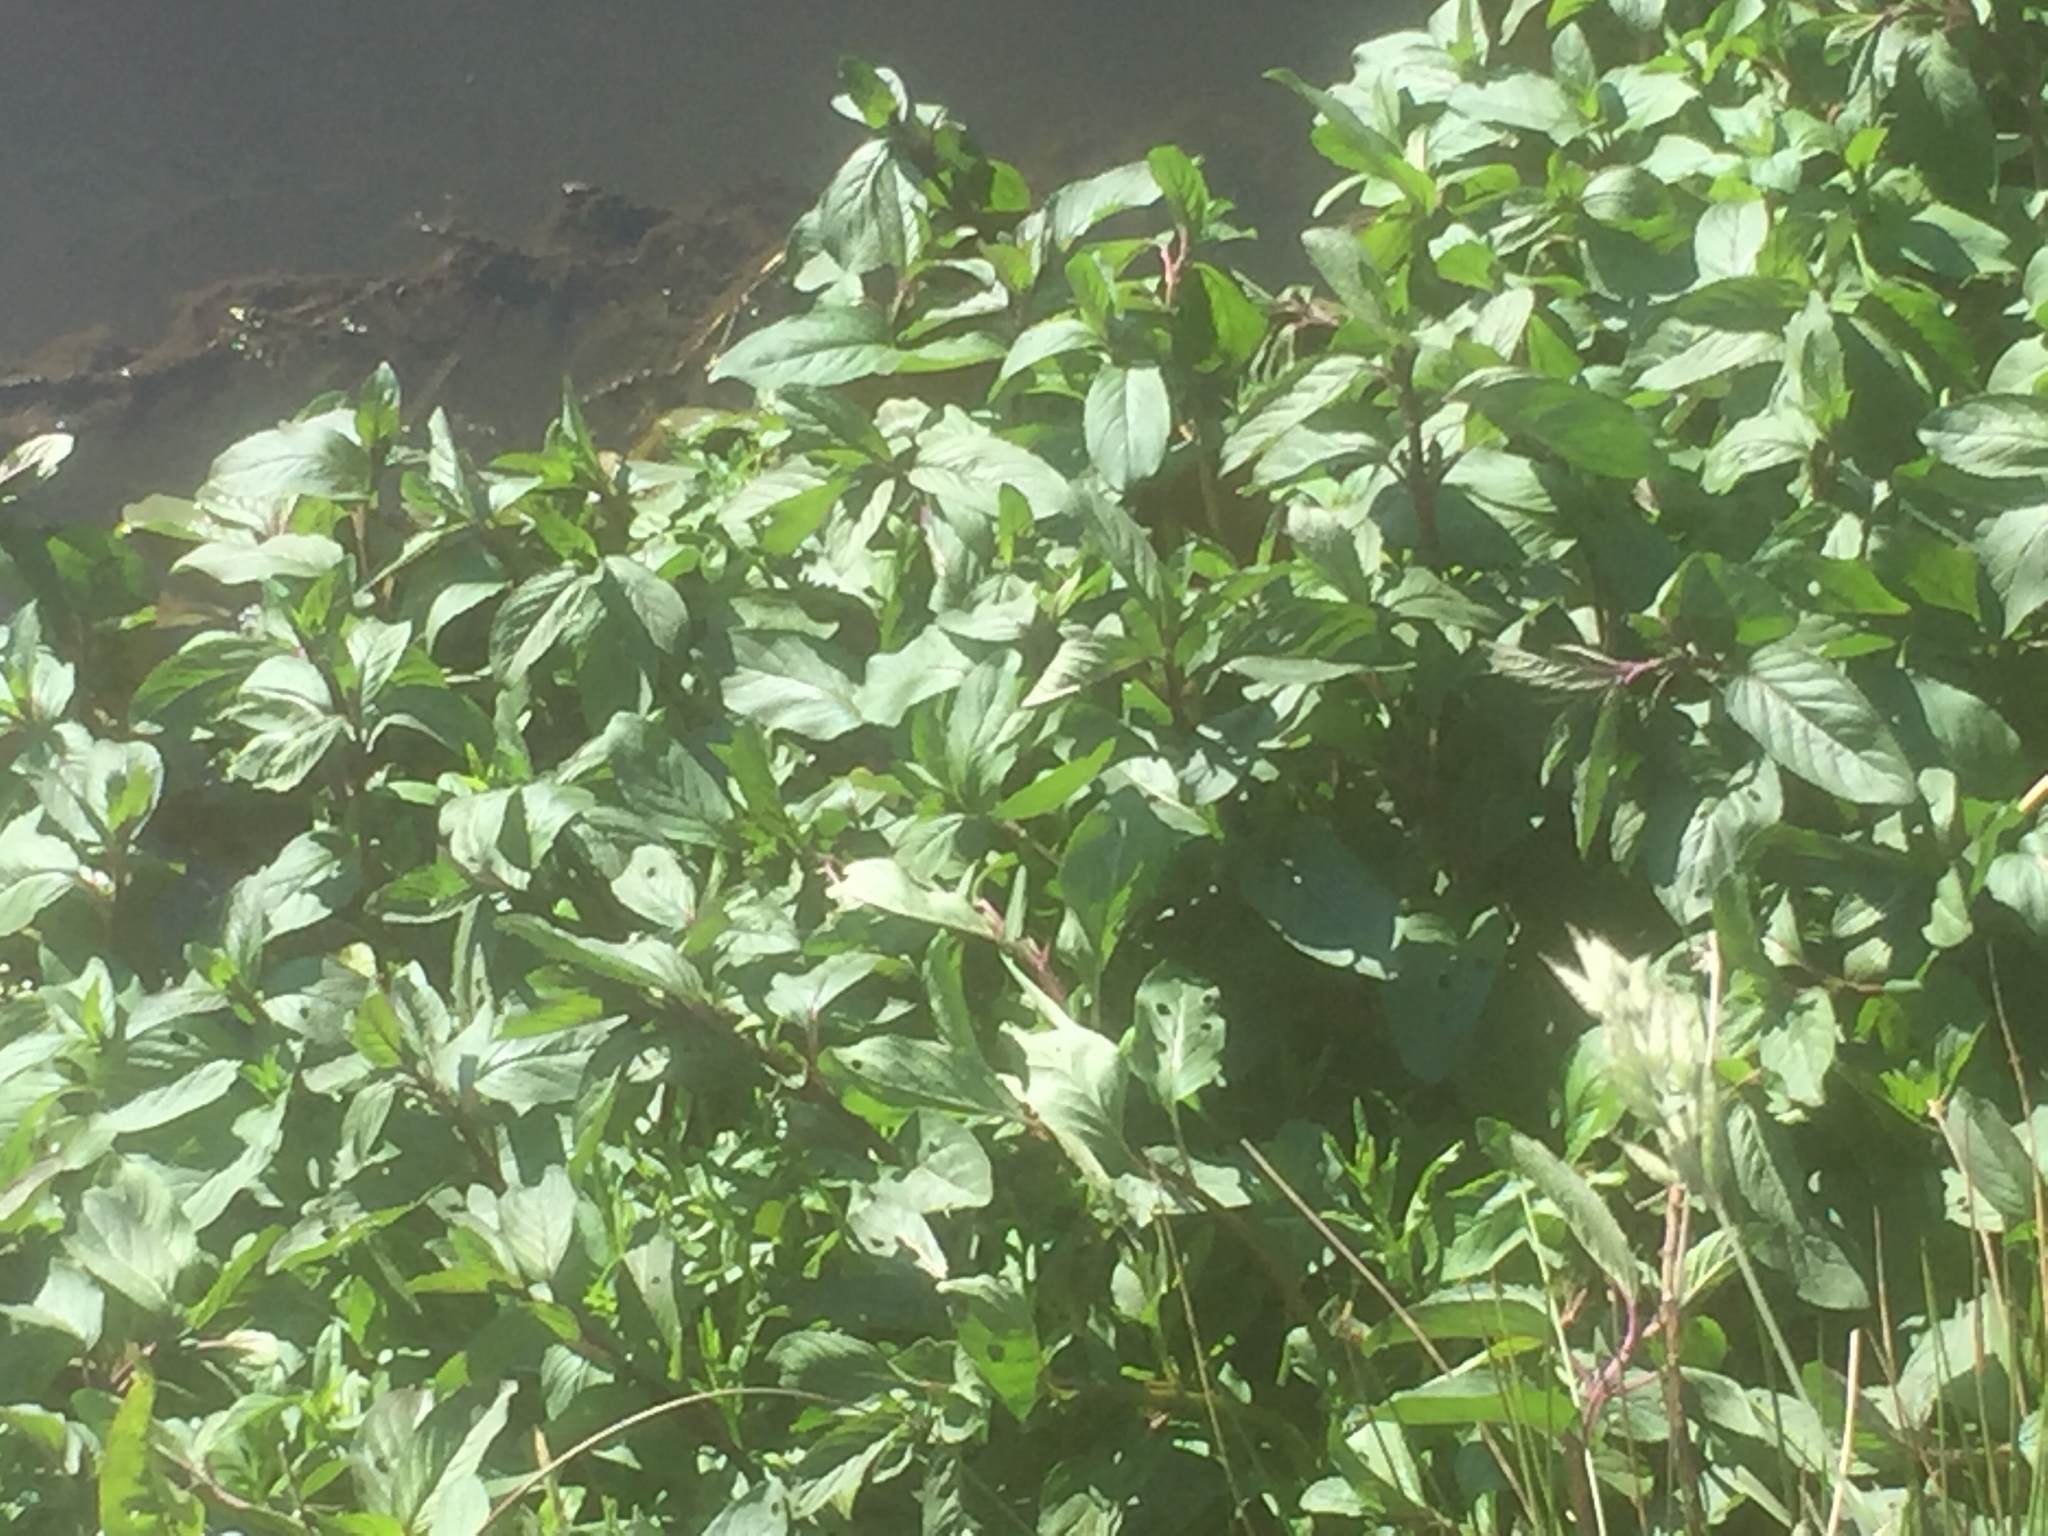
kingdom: Plantae
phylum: Tracheophyta
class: Magnoliopsida
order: Ericales
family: Balsaminaceae
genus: Impatiens
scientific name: Impatiens glandulifera
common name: Himalayan balsam
